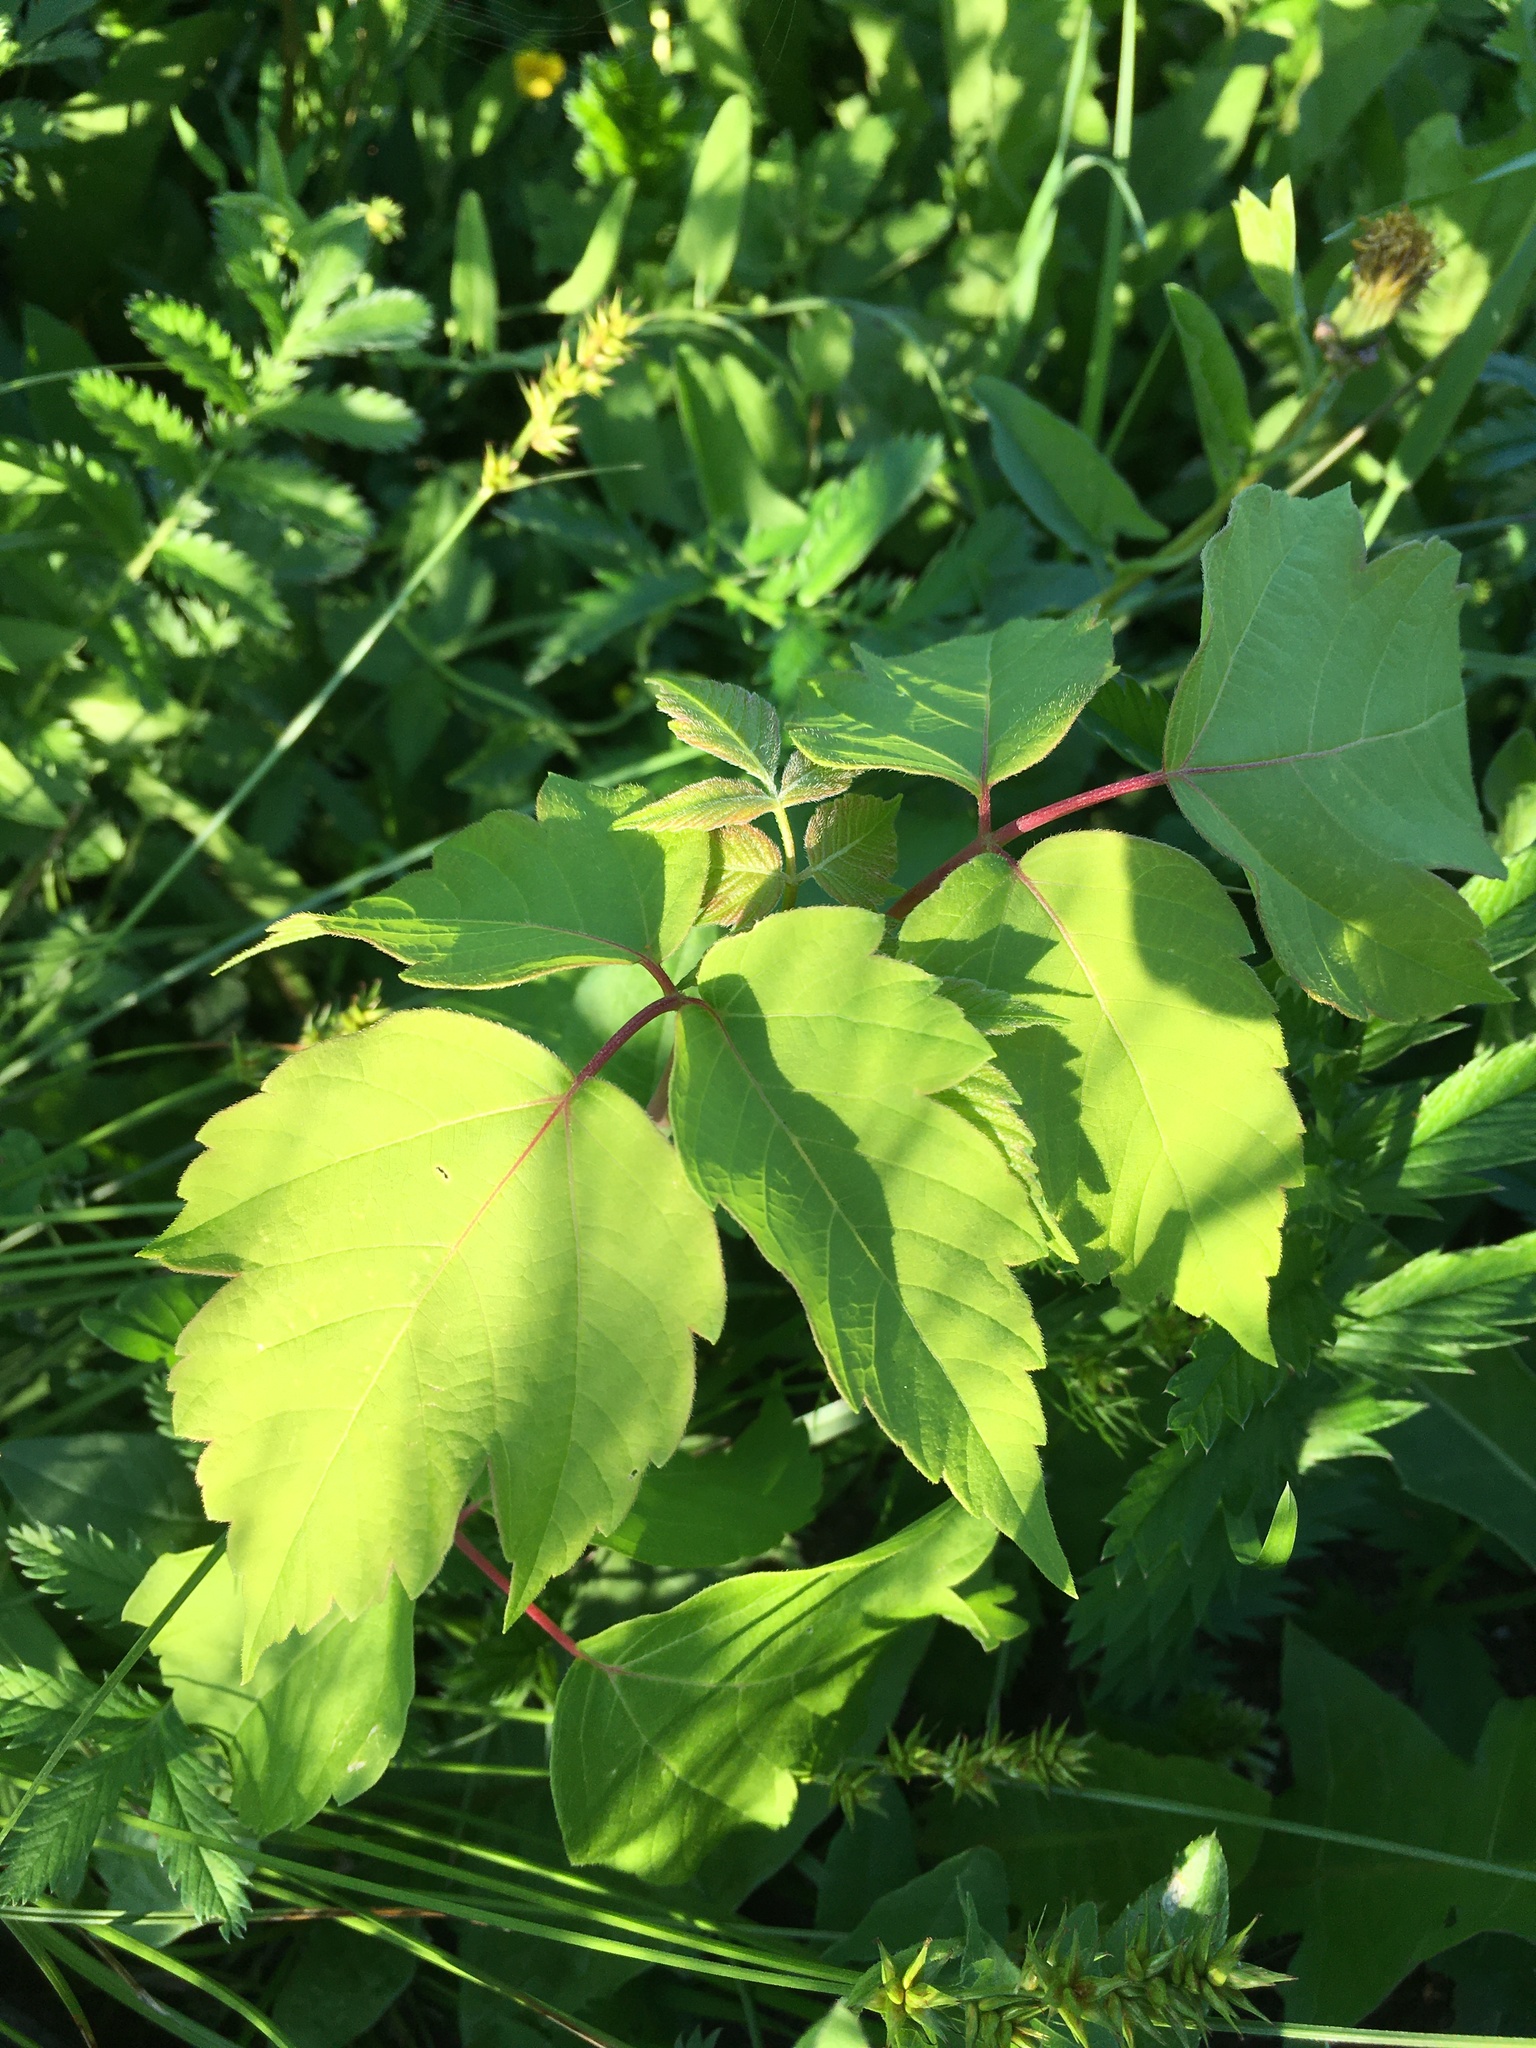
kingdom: Plantae
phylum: Tracheophyta
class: Magnoliopsida
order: Sapindales
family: Sapindaceae
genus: Acer
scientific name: Acer negundo
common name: Ashleaf maple
